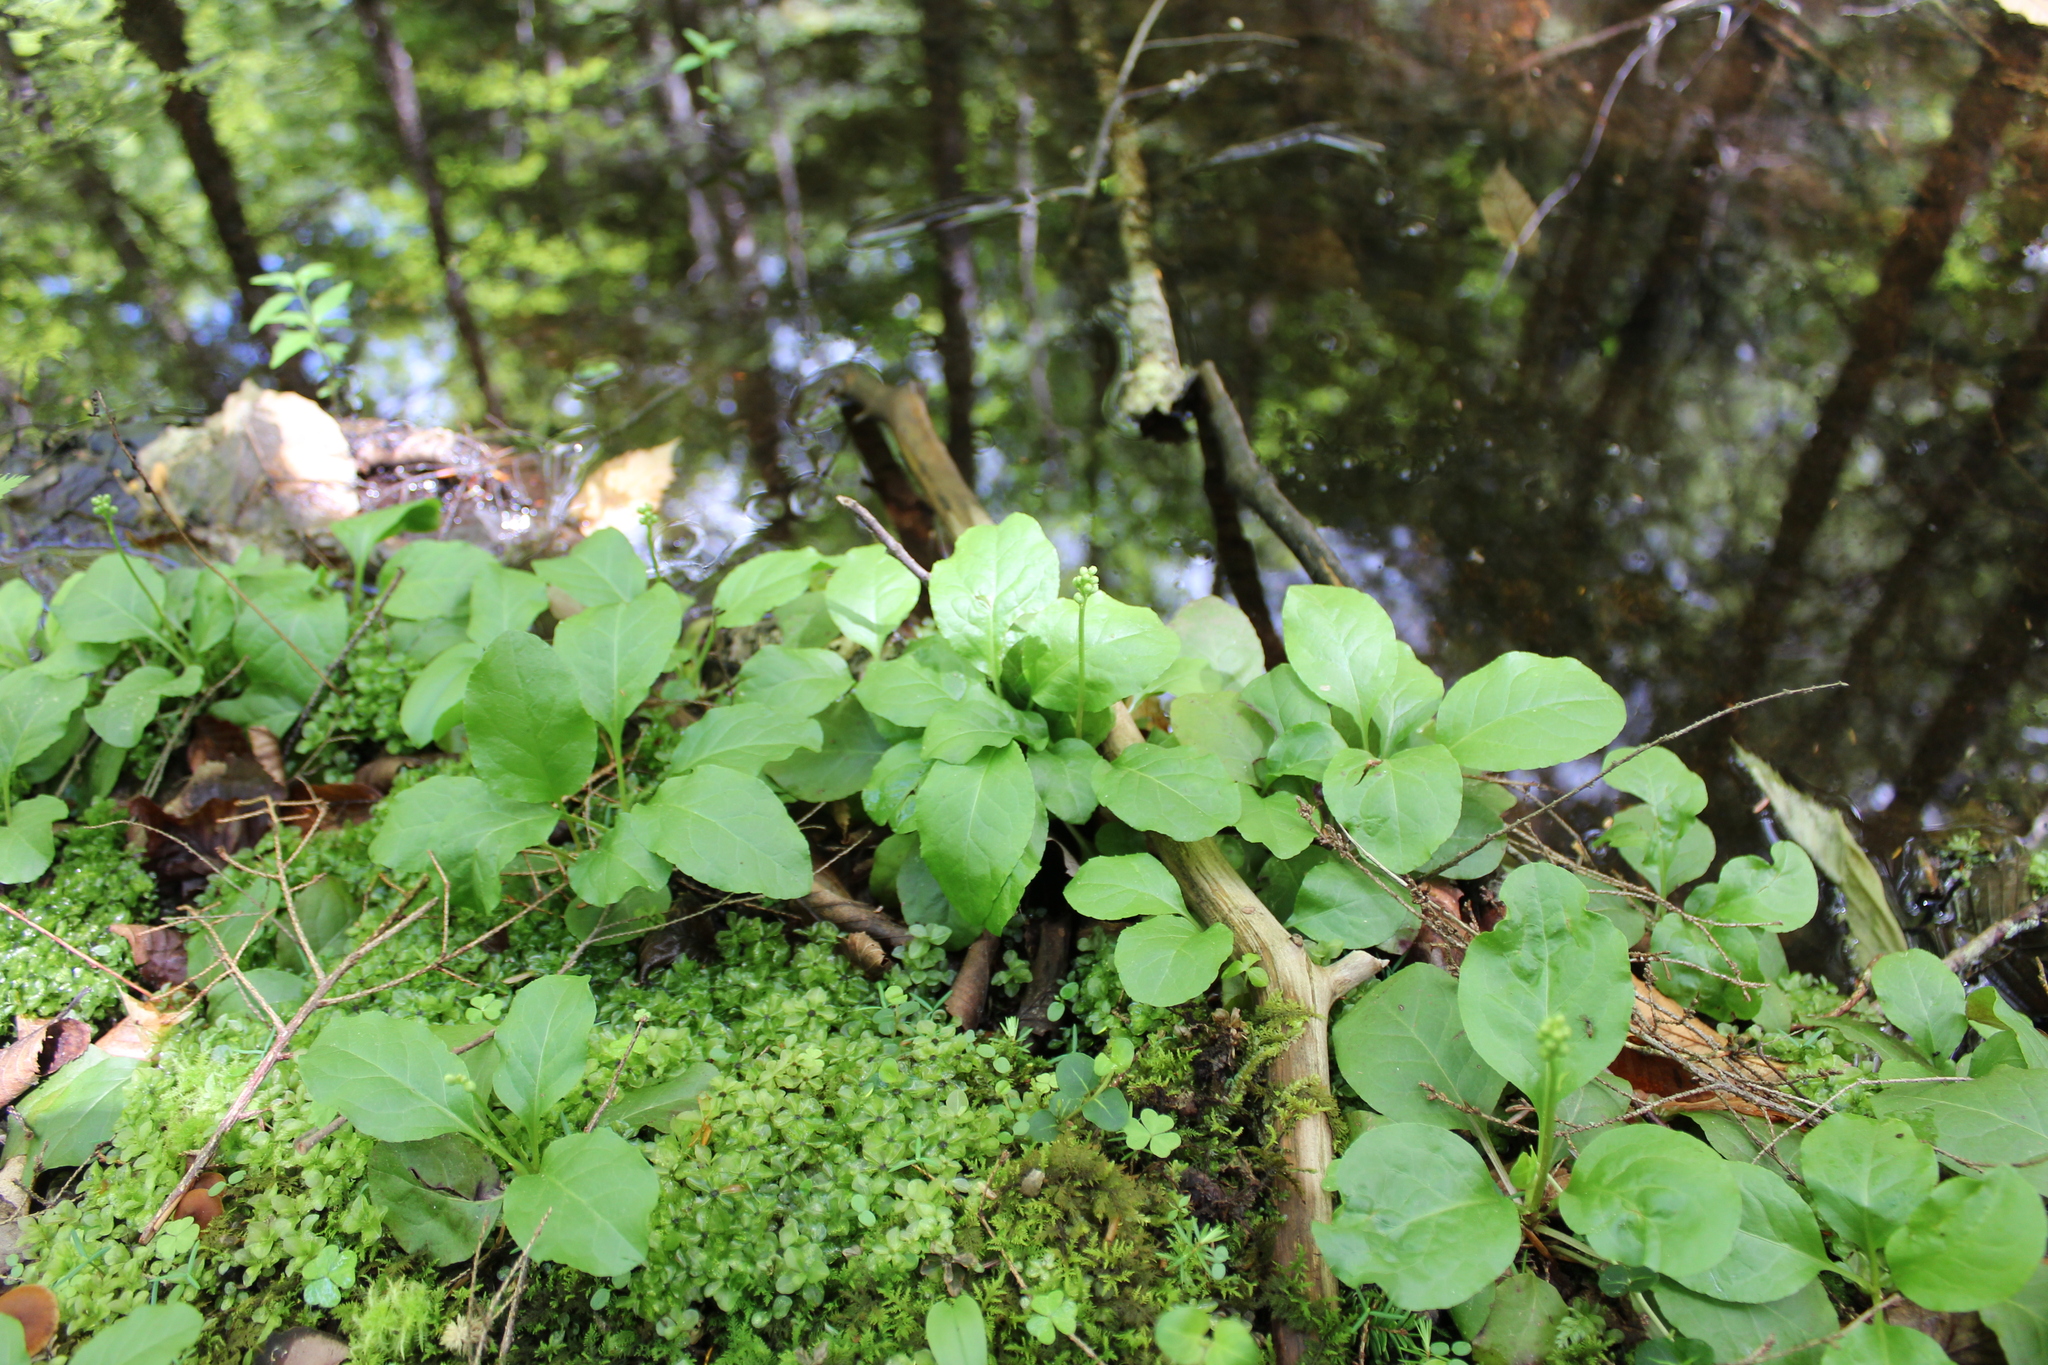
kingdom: Plantae
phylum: Tracheophyta
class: Magnoliopsida
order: Ericales
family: Ericaceae
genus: Pyrola
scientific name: Pyrola elliptica
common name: Shinleaf
